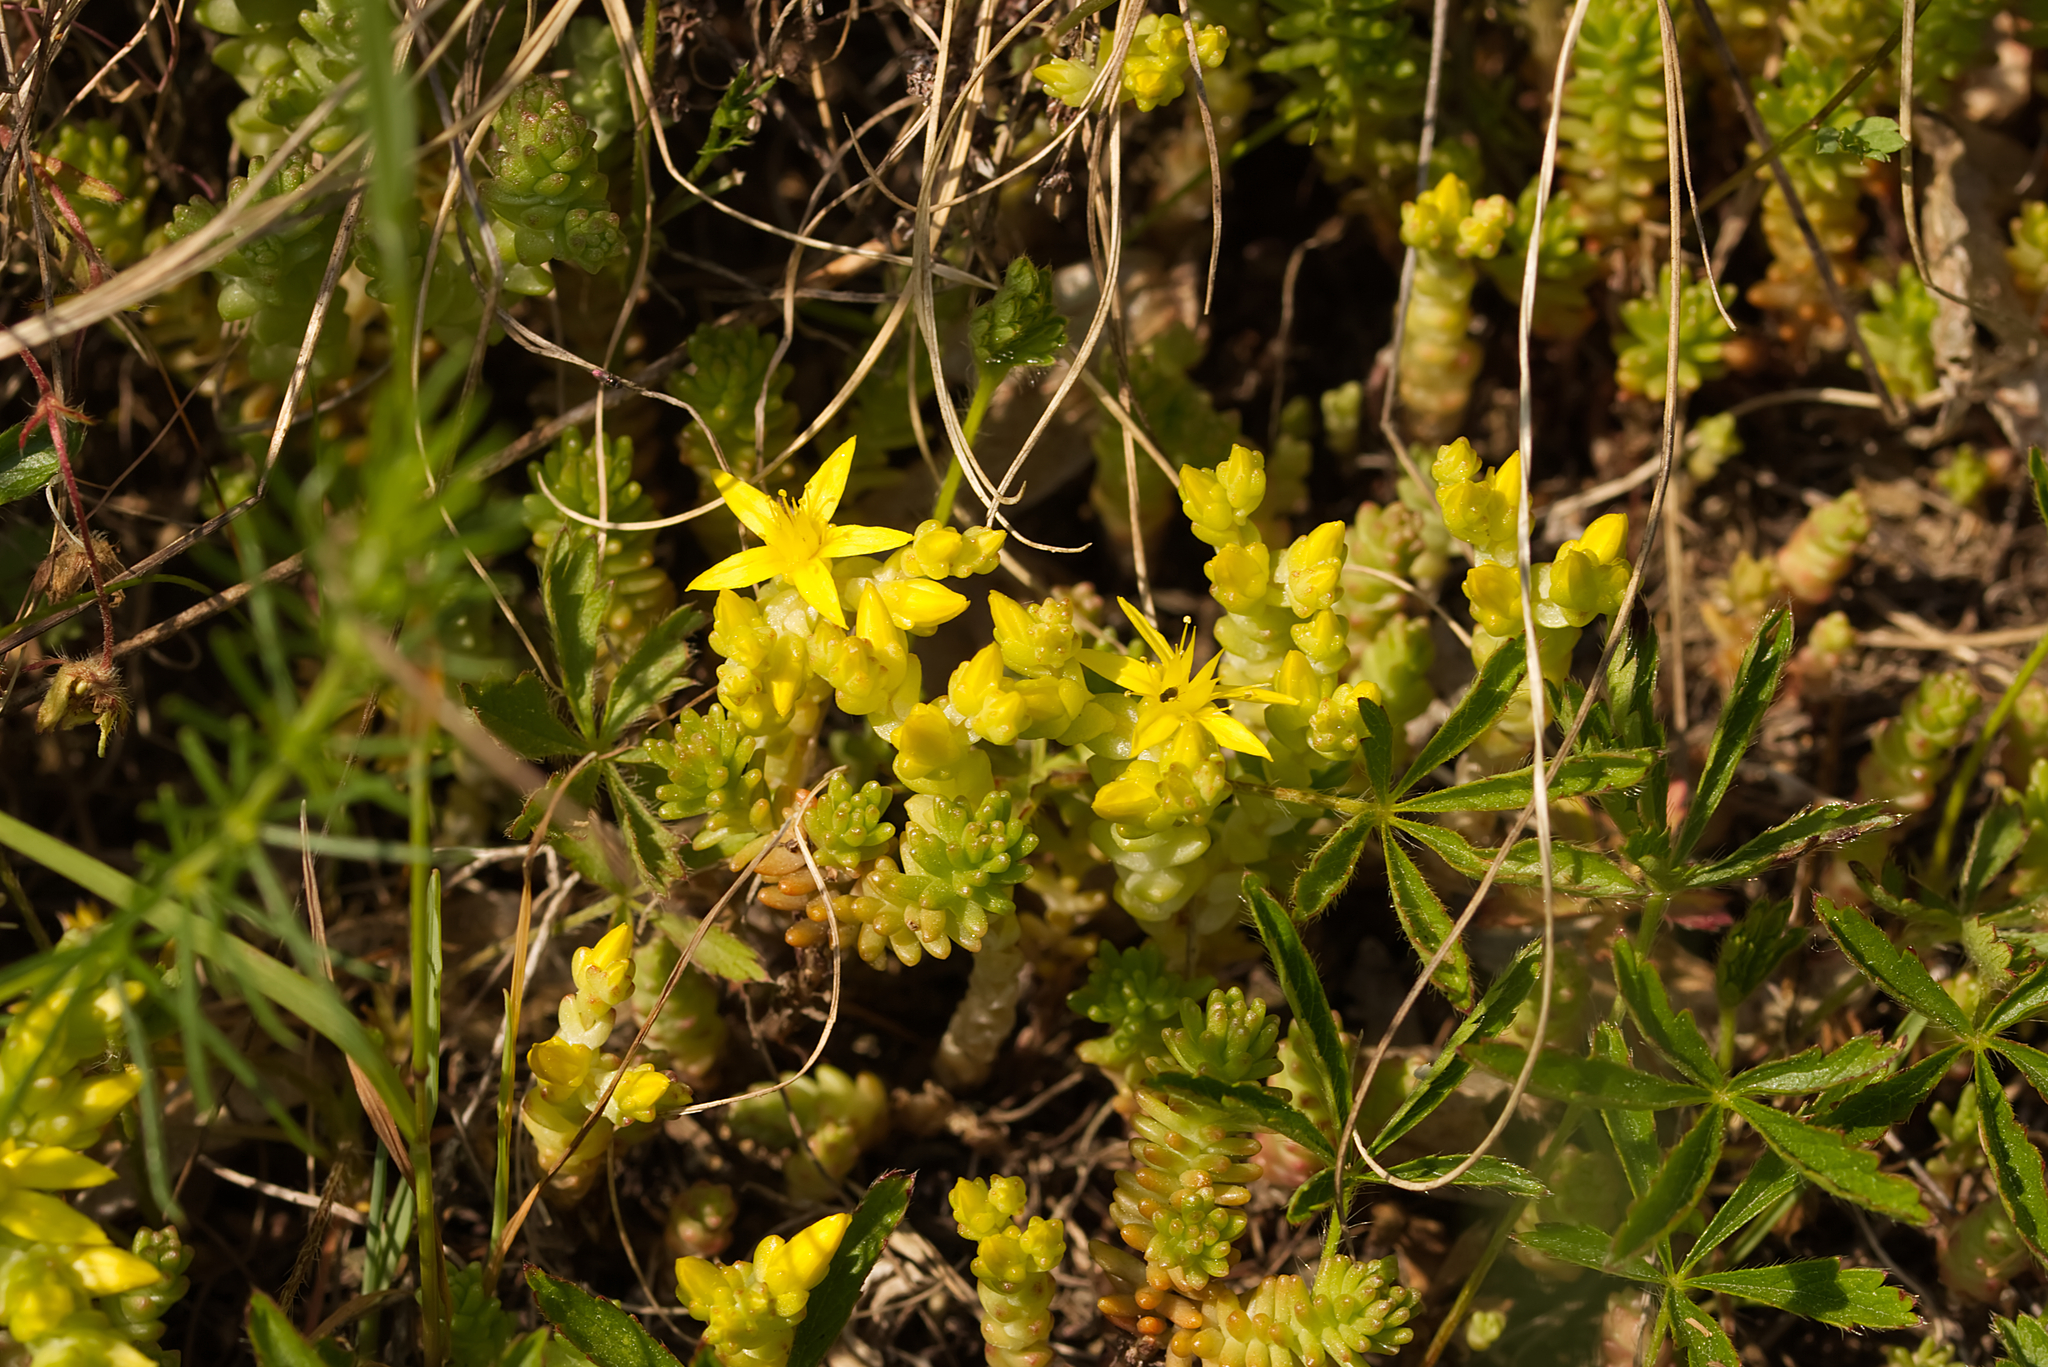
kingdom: Plantae
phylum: Tracheophyta
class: Magnoliopsida
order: Saxifragales
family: Crassulaceae
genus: Sedum
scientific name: Sedum acre
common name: Biting stonecrop
